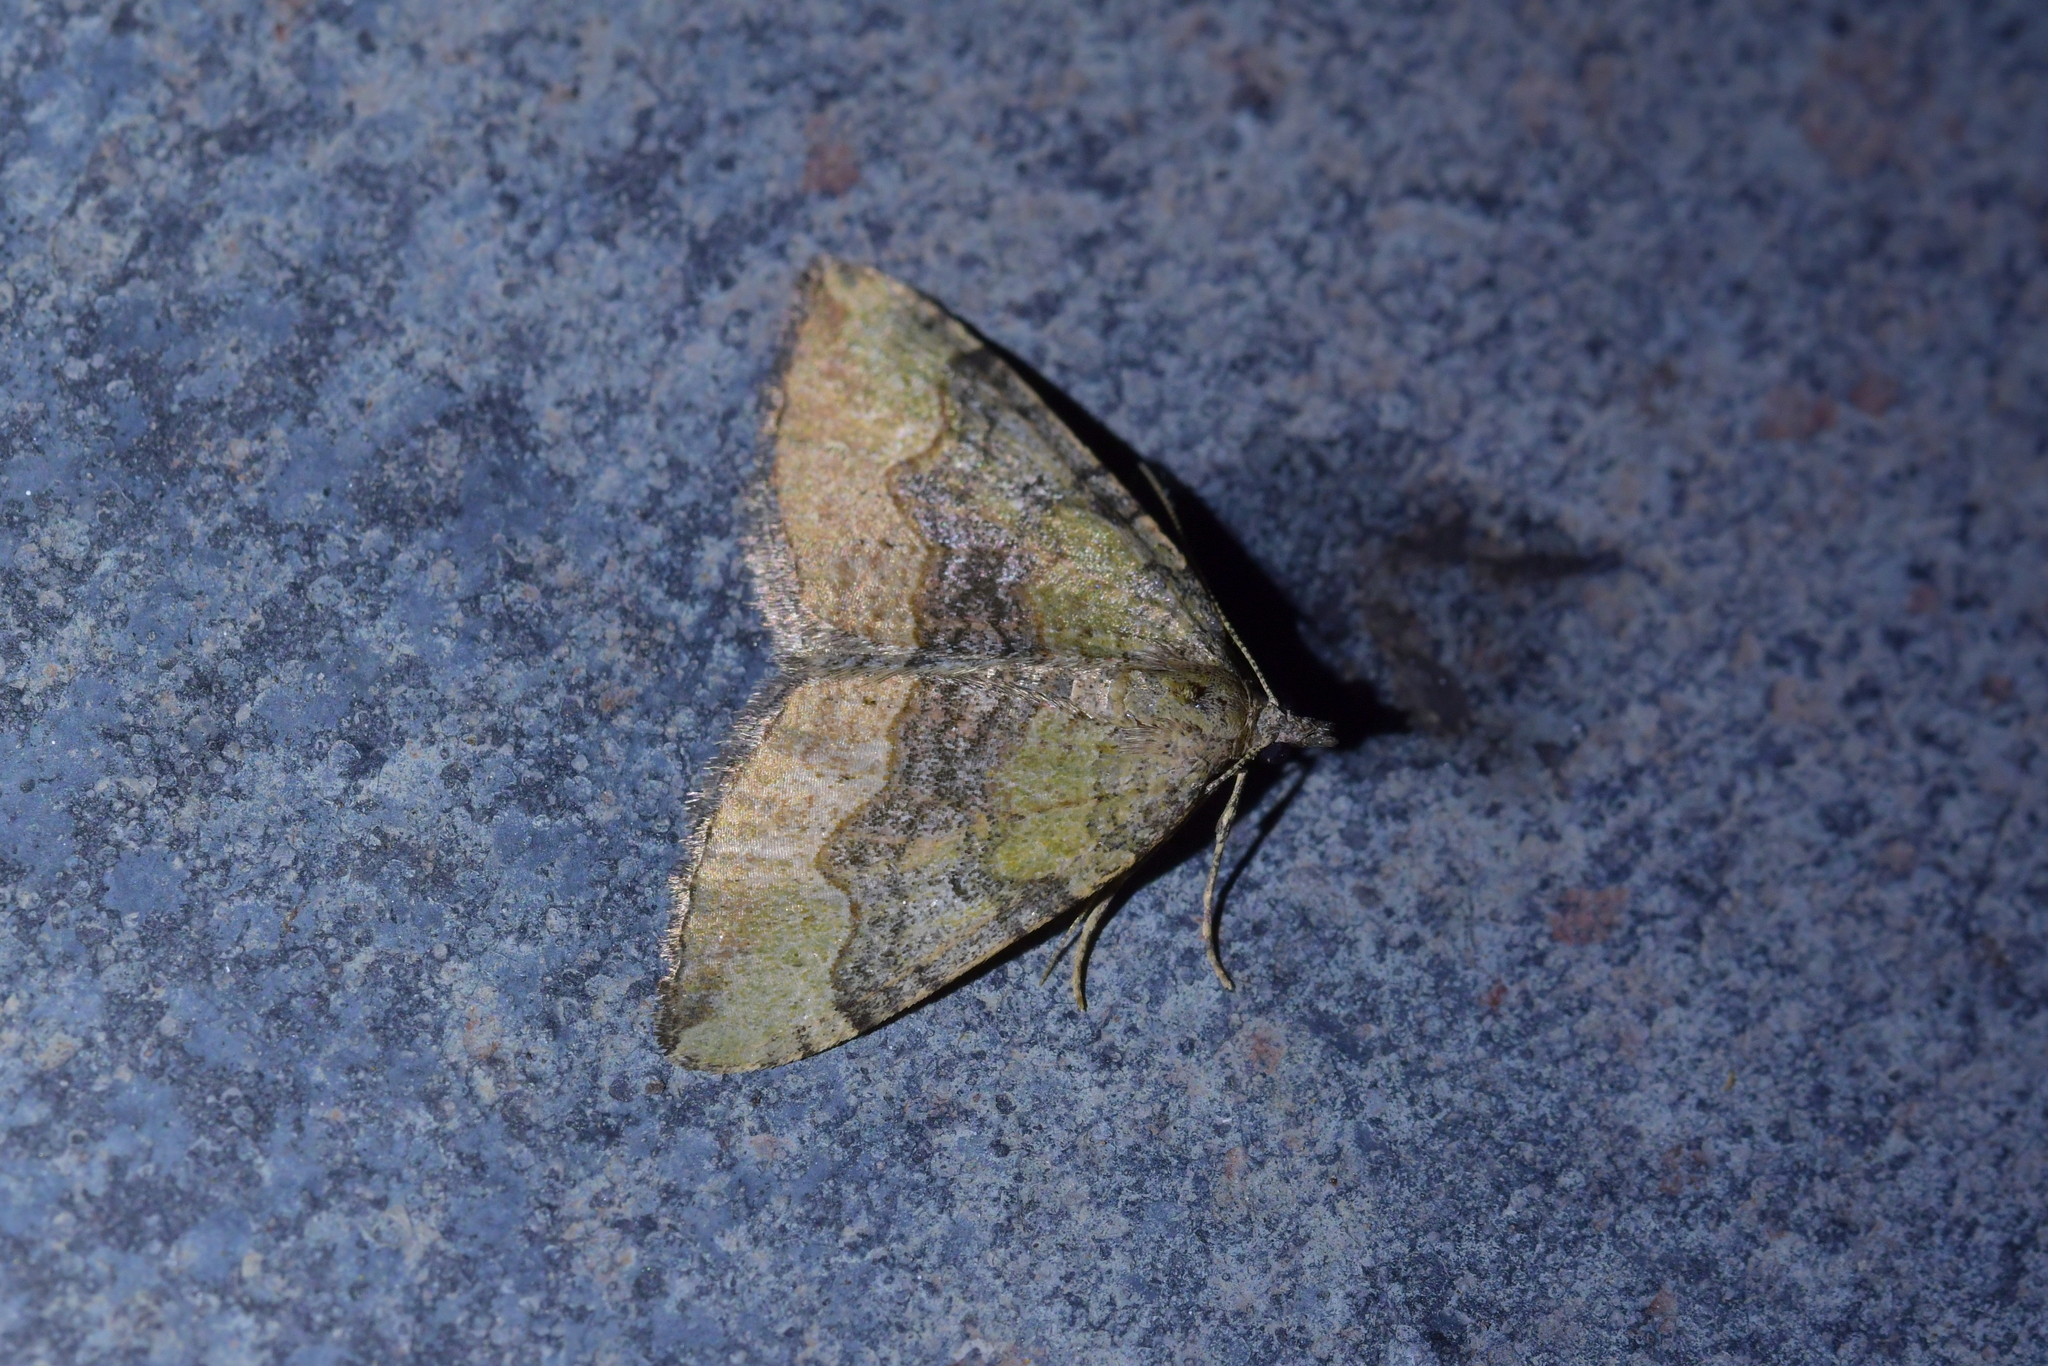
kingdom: Animalia
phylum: Arthropoda
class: Insecta
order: Lepidoptera
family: Geometridae
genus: Epyaxa
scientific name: Epyaxa rosearia
